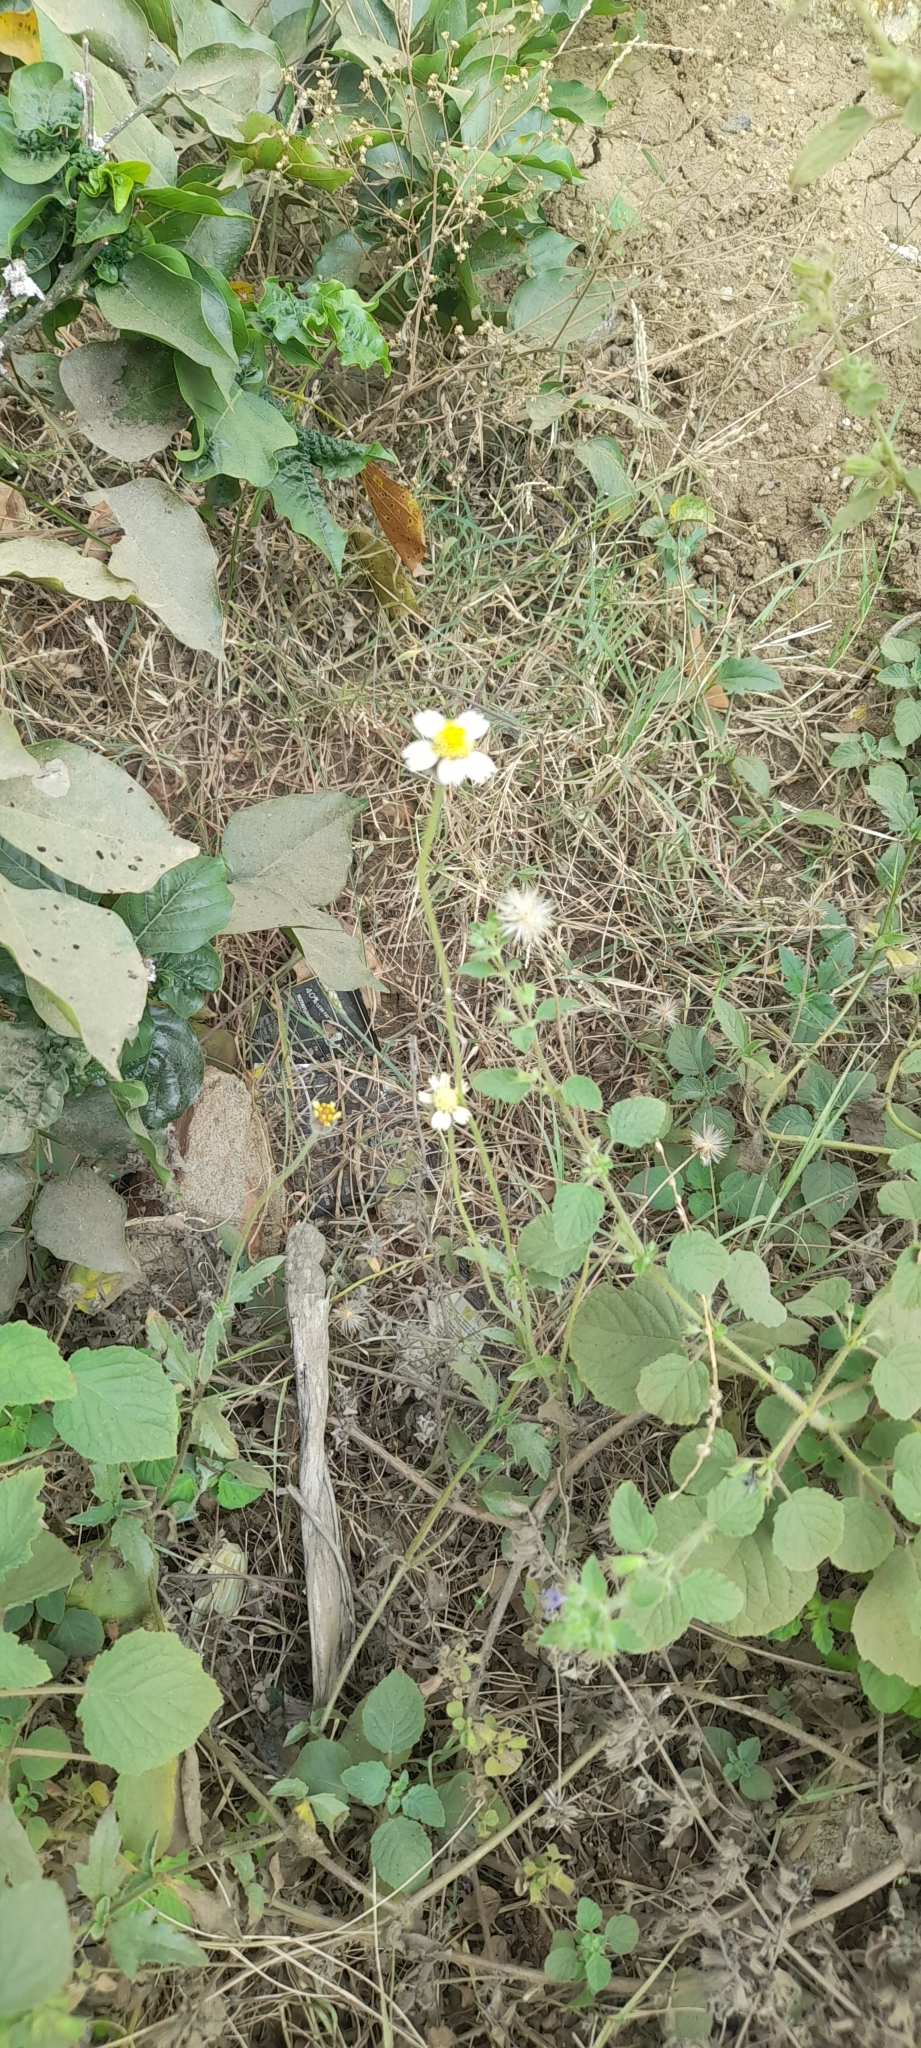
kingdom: Plantae
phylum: Tracheophyta
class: Magnoliopsida
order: Asterales
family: Asteraceae
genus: Tridax
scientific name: Tridax procumbens
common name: Coatbuttons
